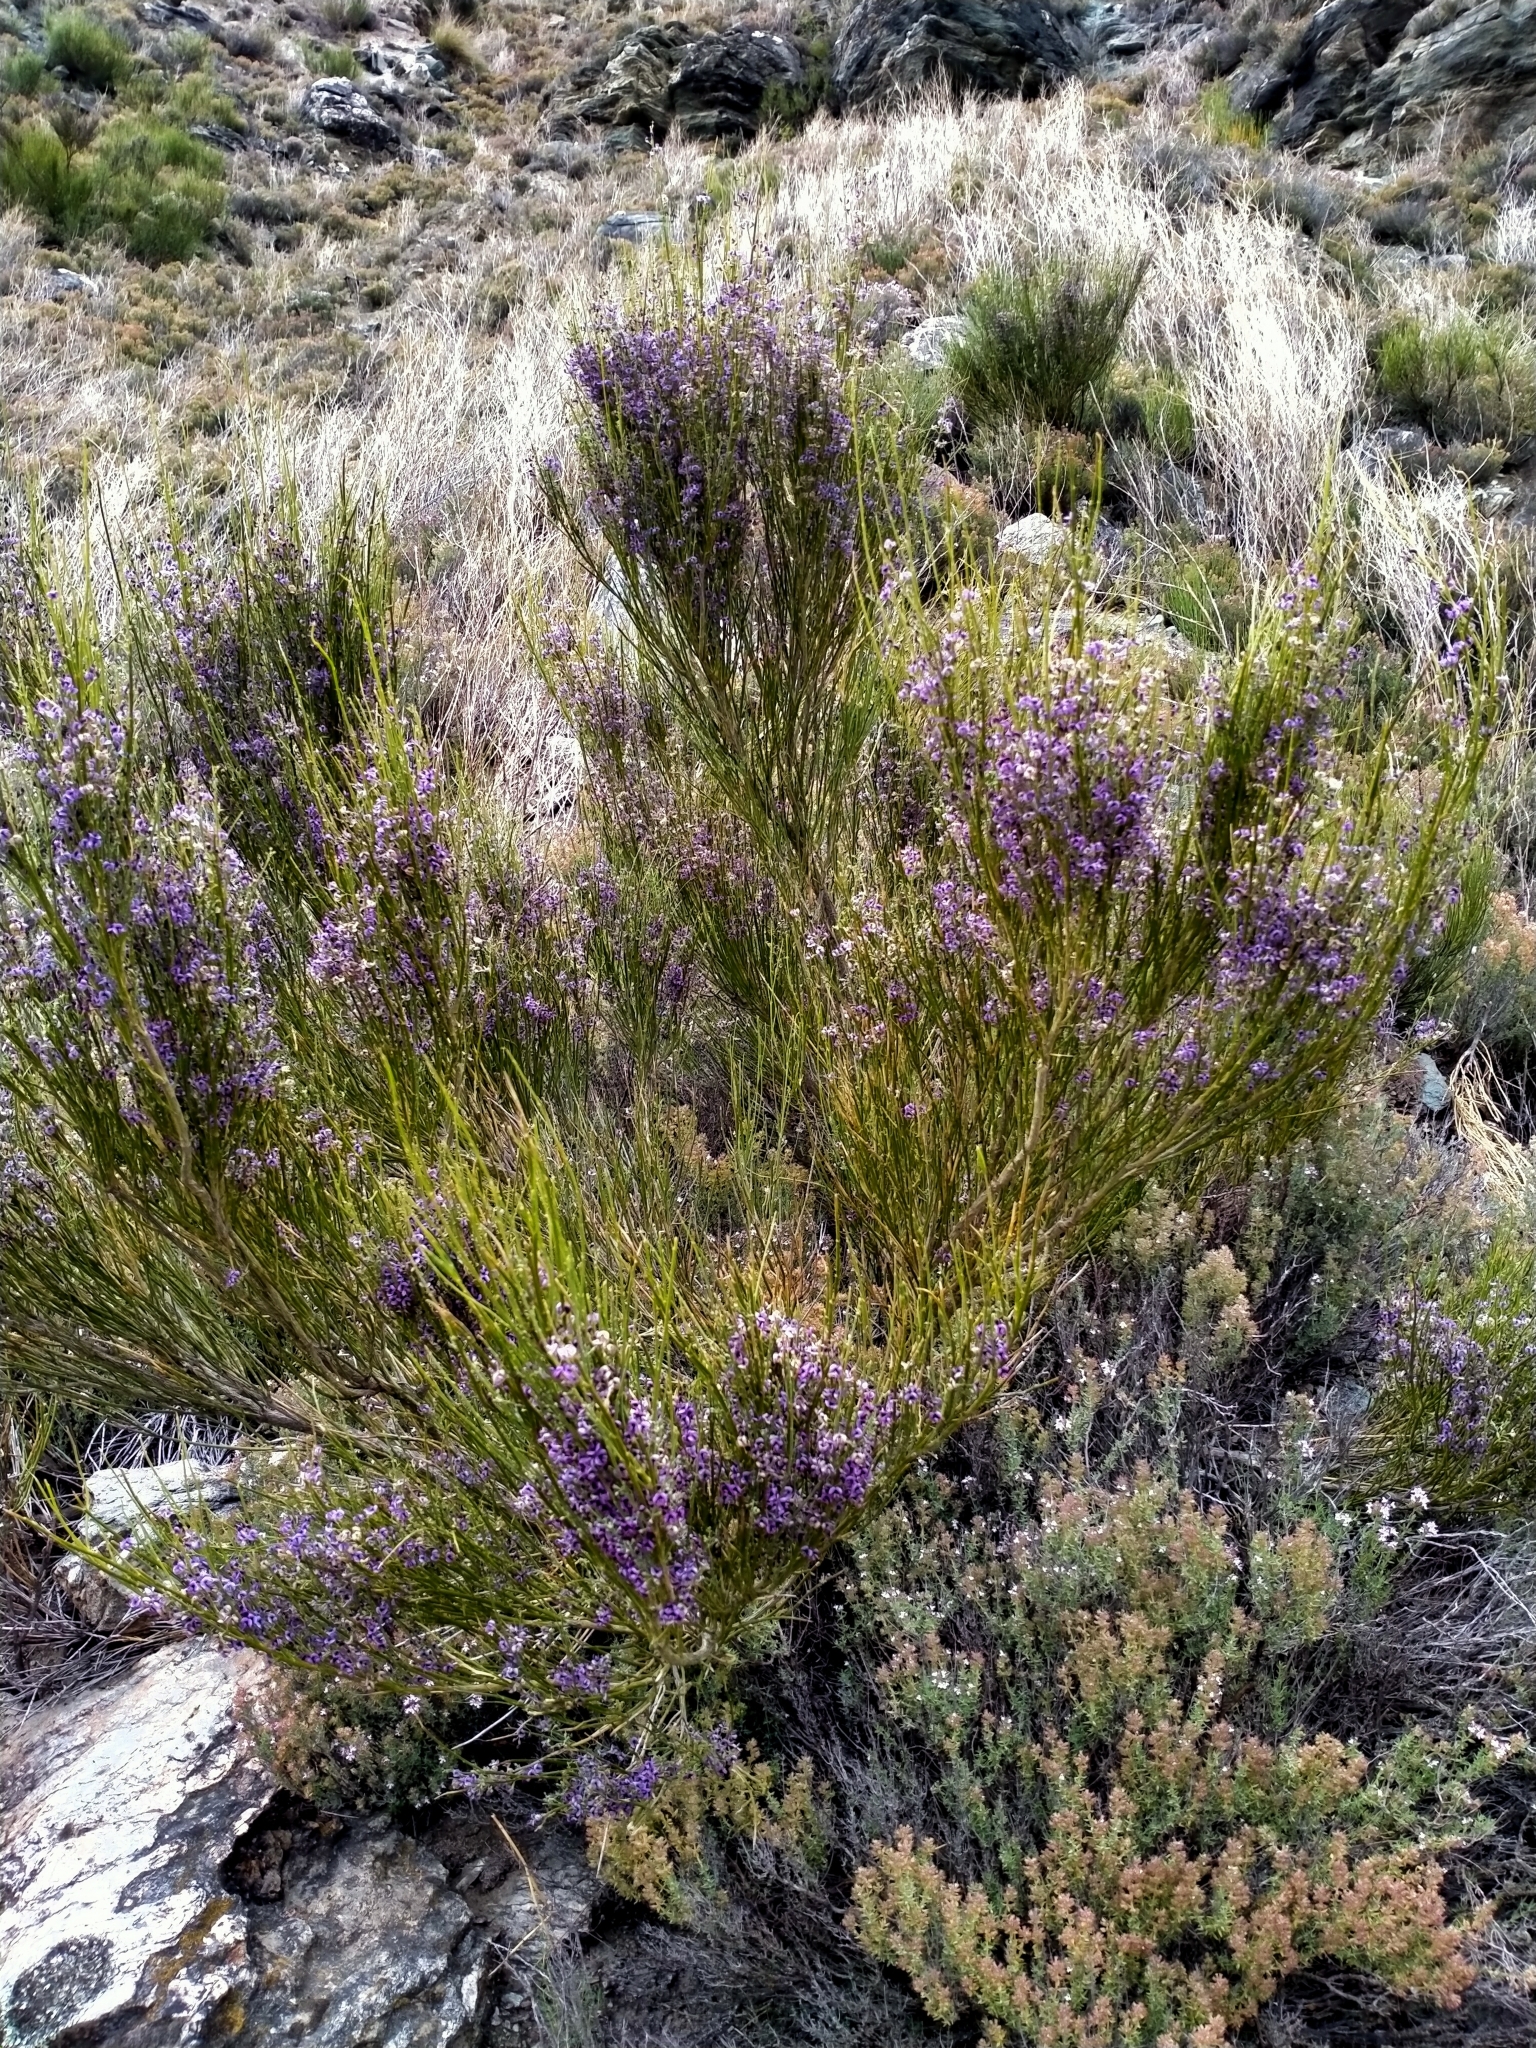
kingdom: Plantae
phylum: Tracheophyta
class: Magnoliopsida
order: Fabales
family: Fabaceae
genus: Carmichaelia
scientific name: Carmichaelia compacta
